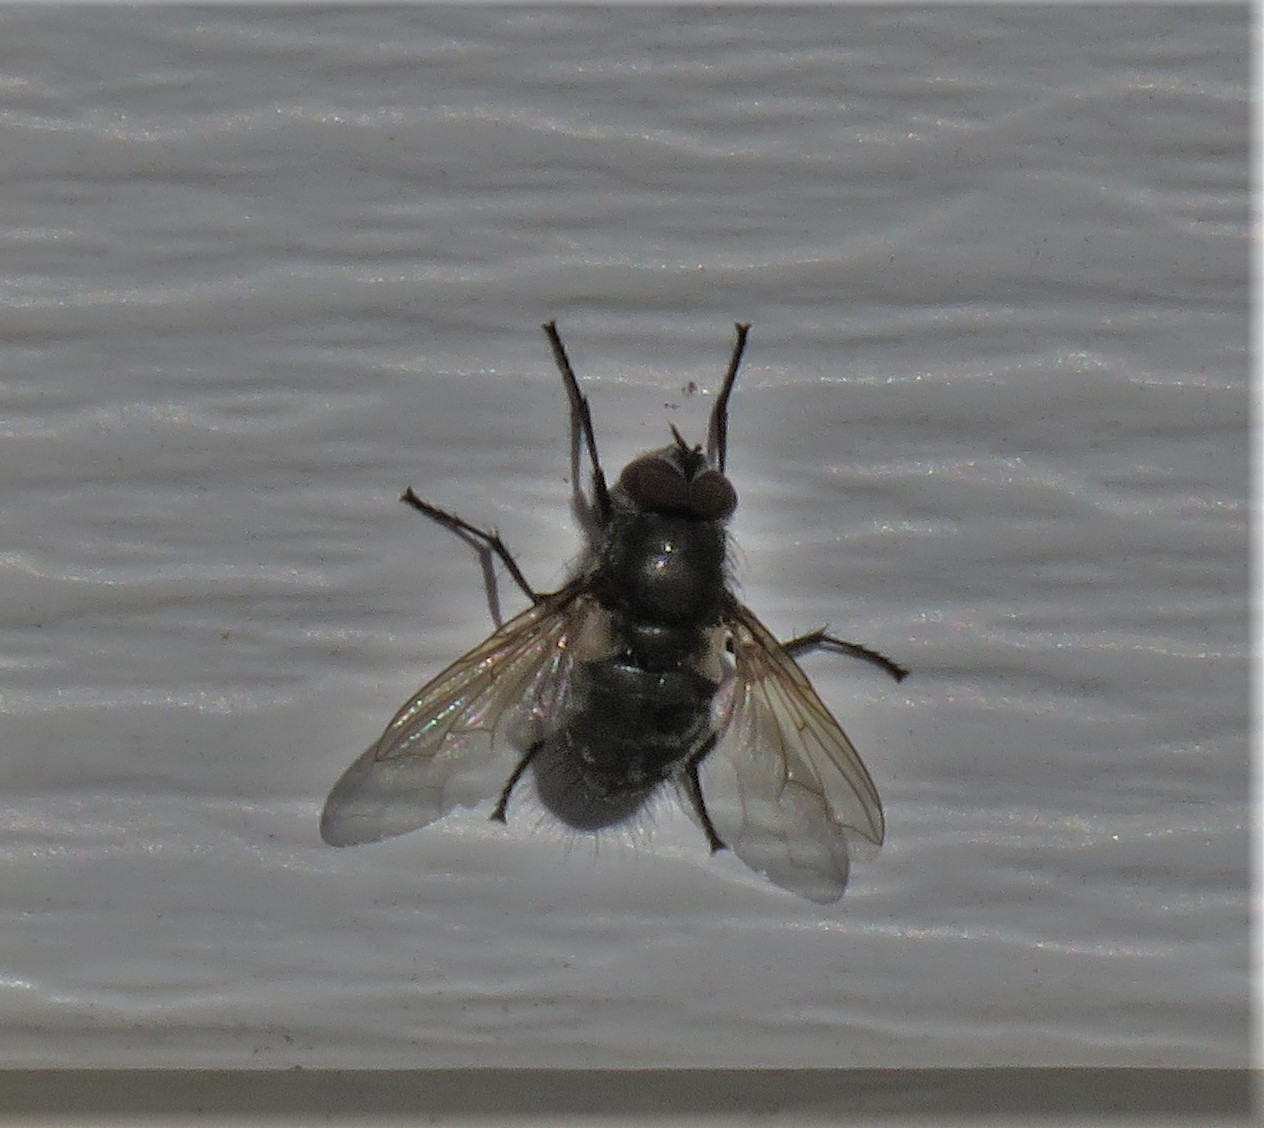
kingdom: Animalia
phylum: Arthropoda
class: Insecta
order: Diptera
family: Polleniidae
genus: Pollenia
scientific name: Pollenia
